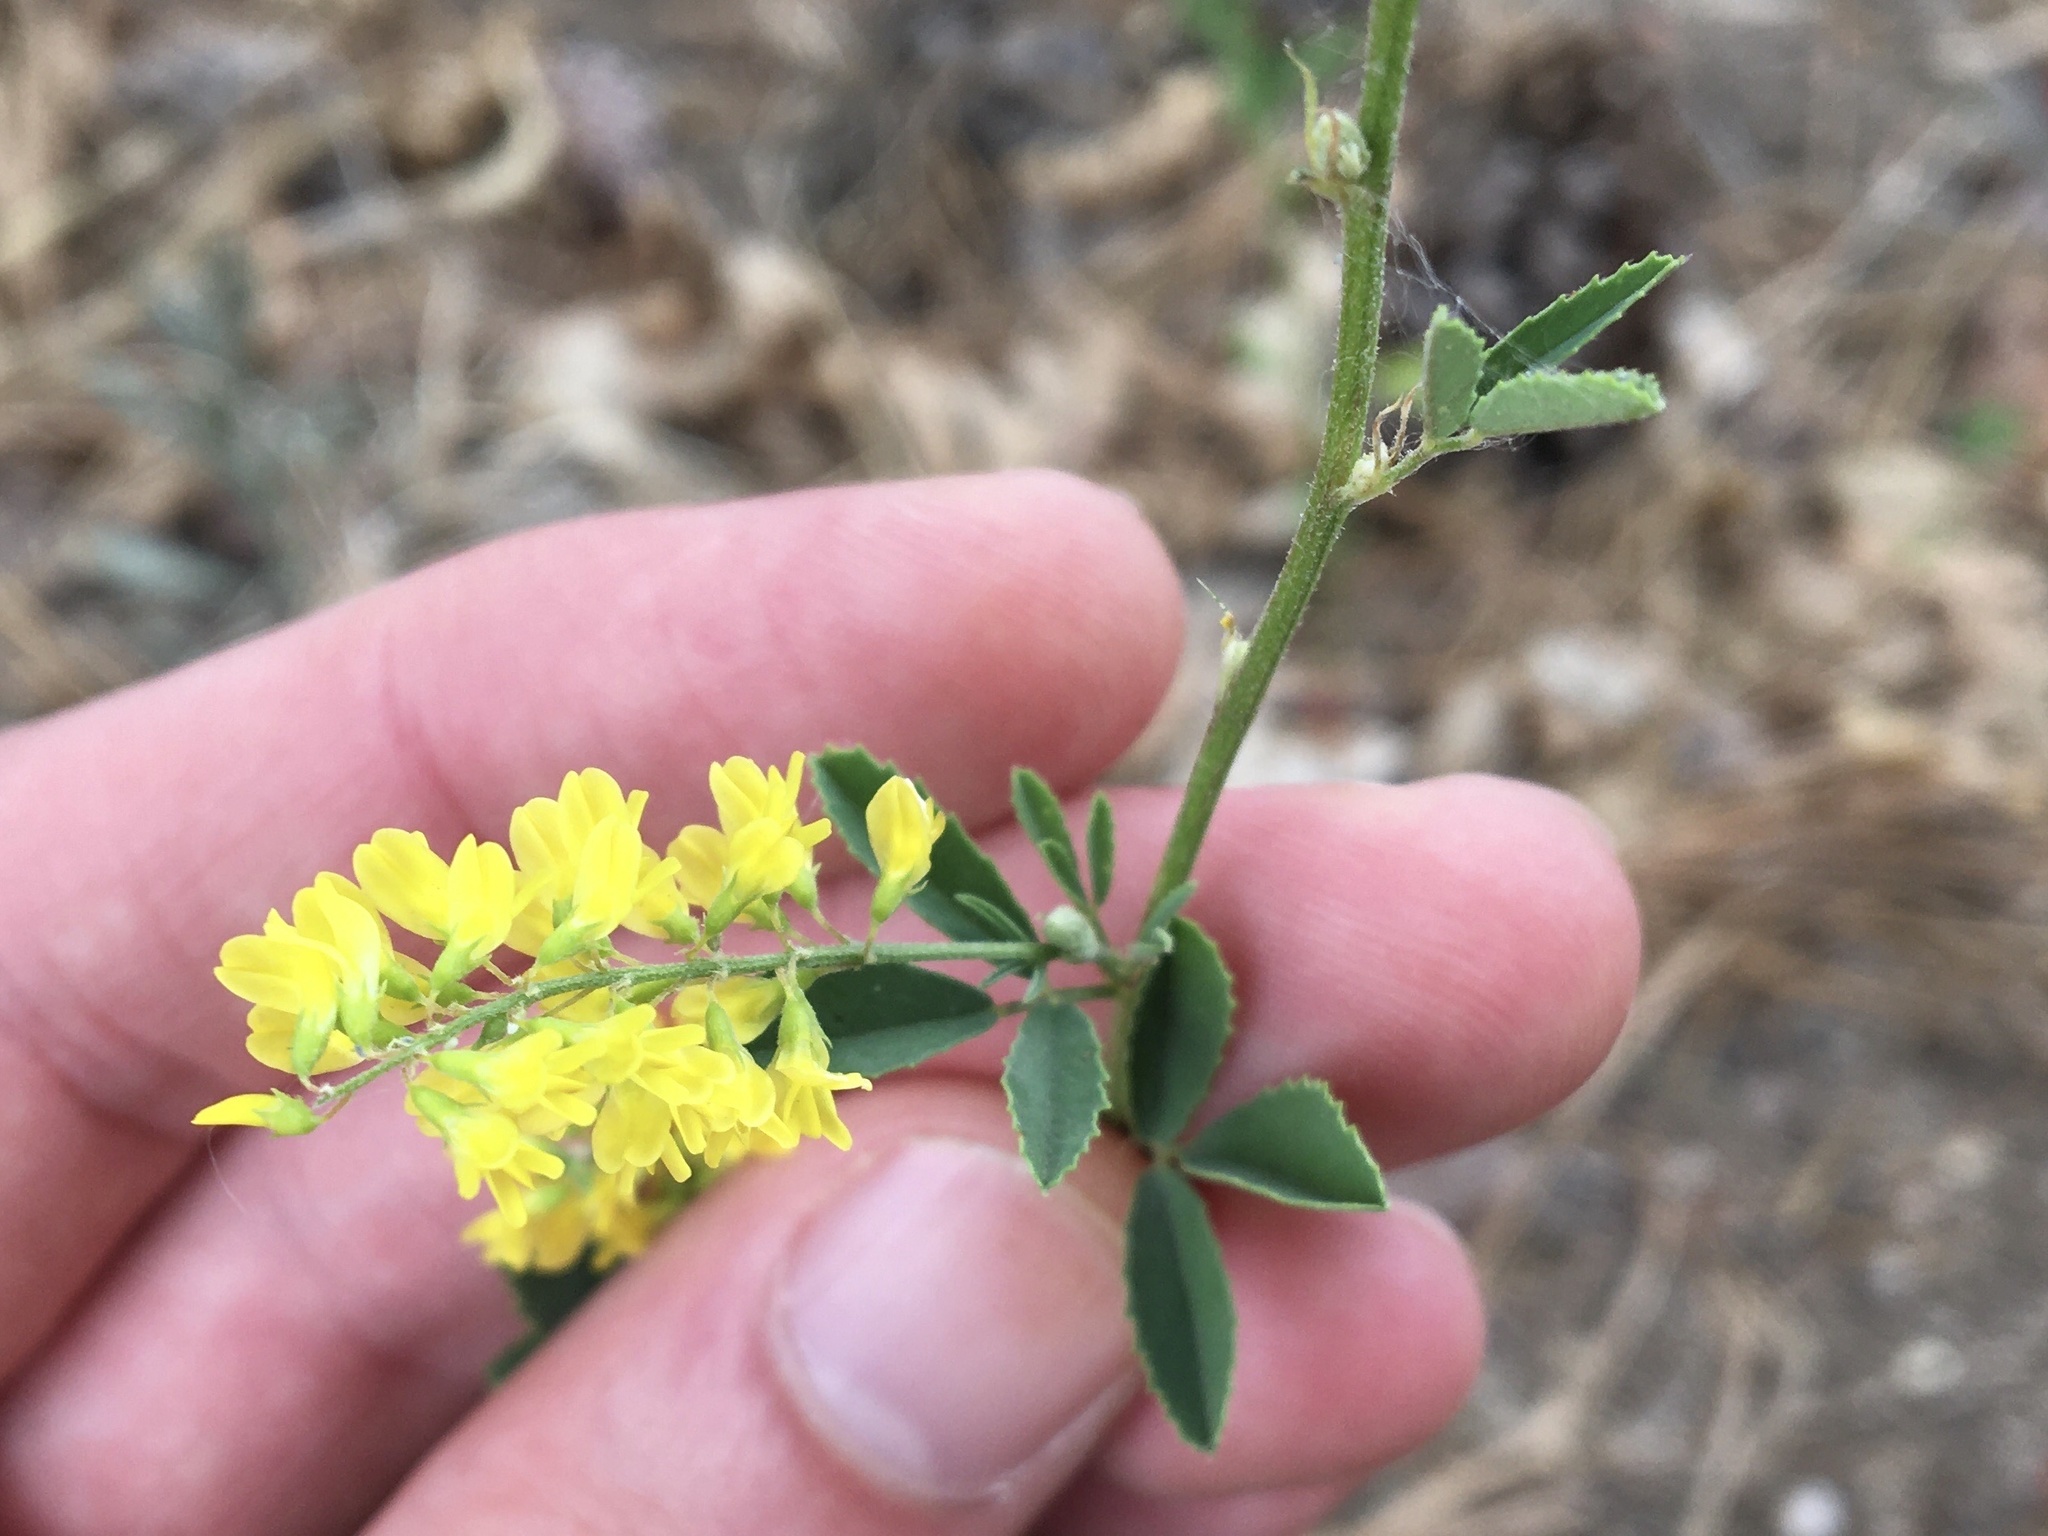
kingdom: Plantae
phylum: Tracheophyta
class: Magnoliopsida
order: Fabales
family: Fabaceae
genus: Melilotus
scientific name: Melilotus officinalis
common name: Sweetclover
